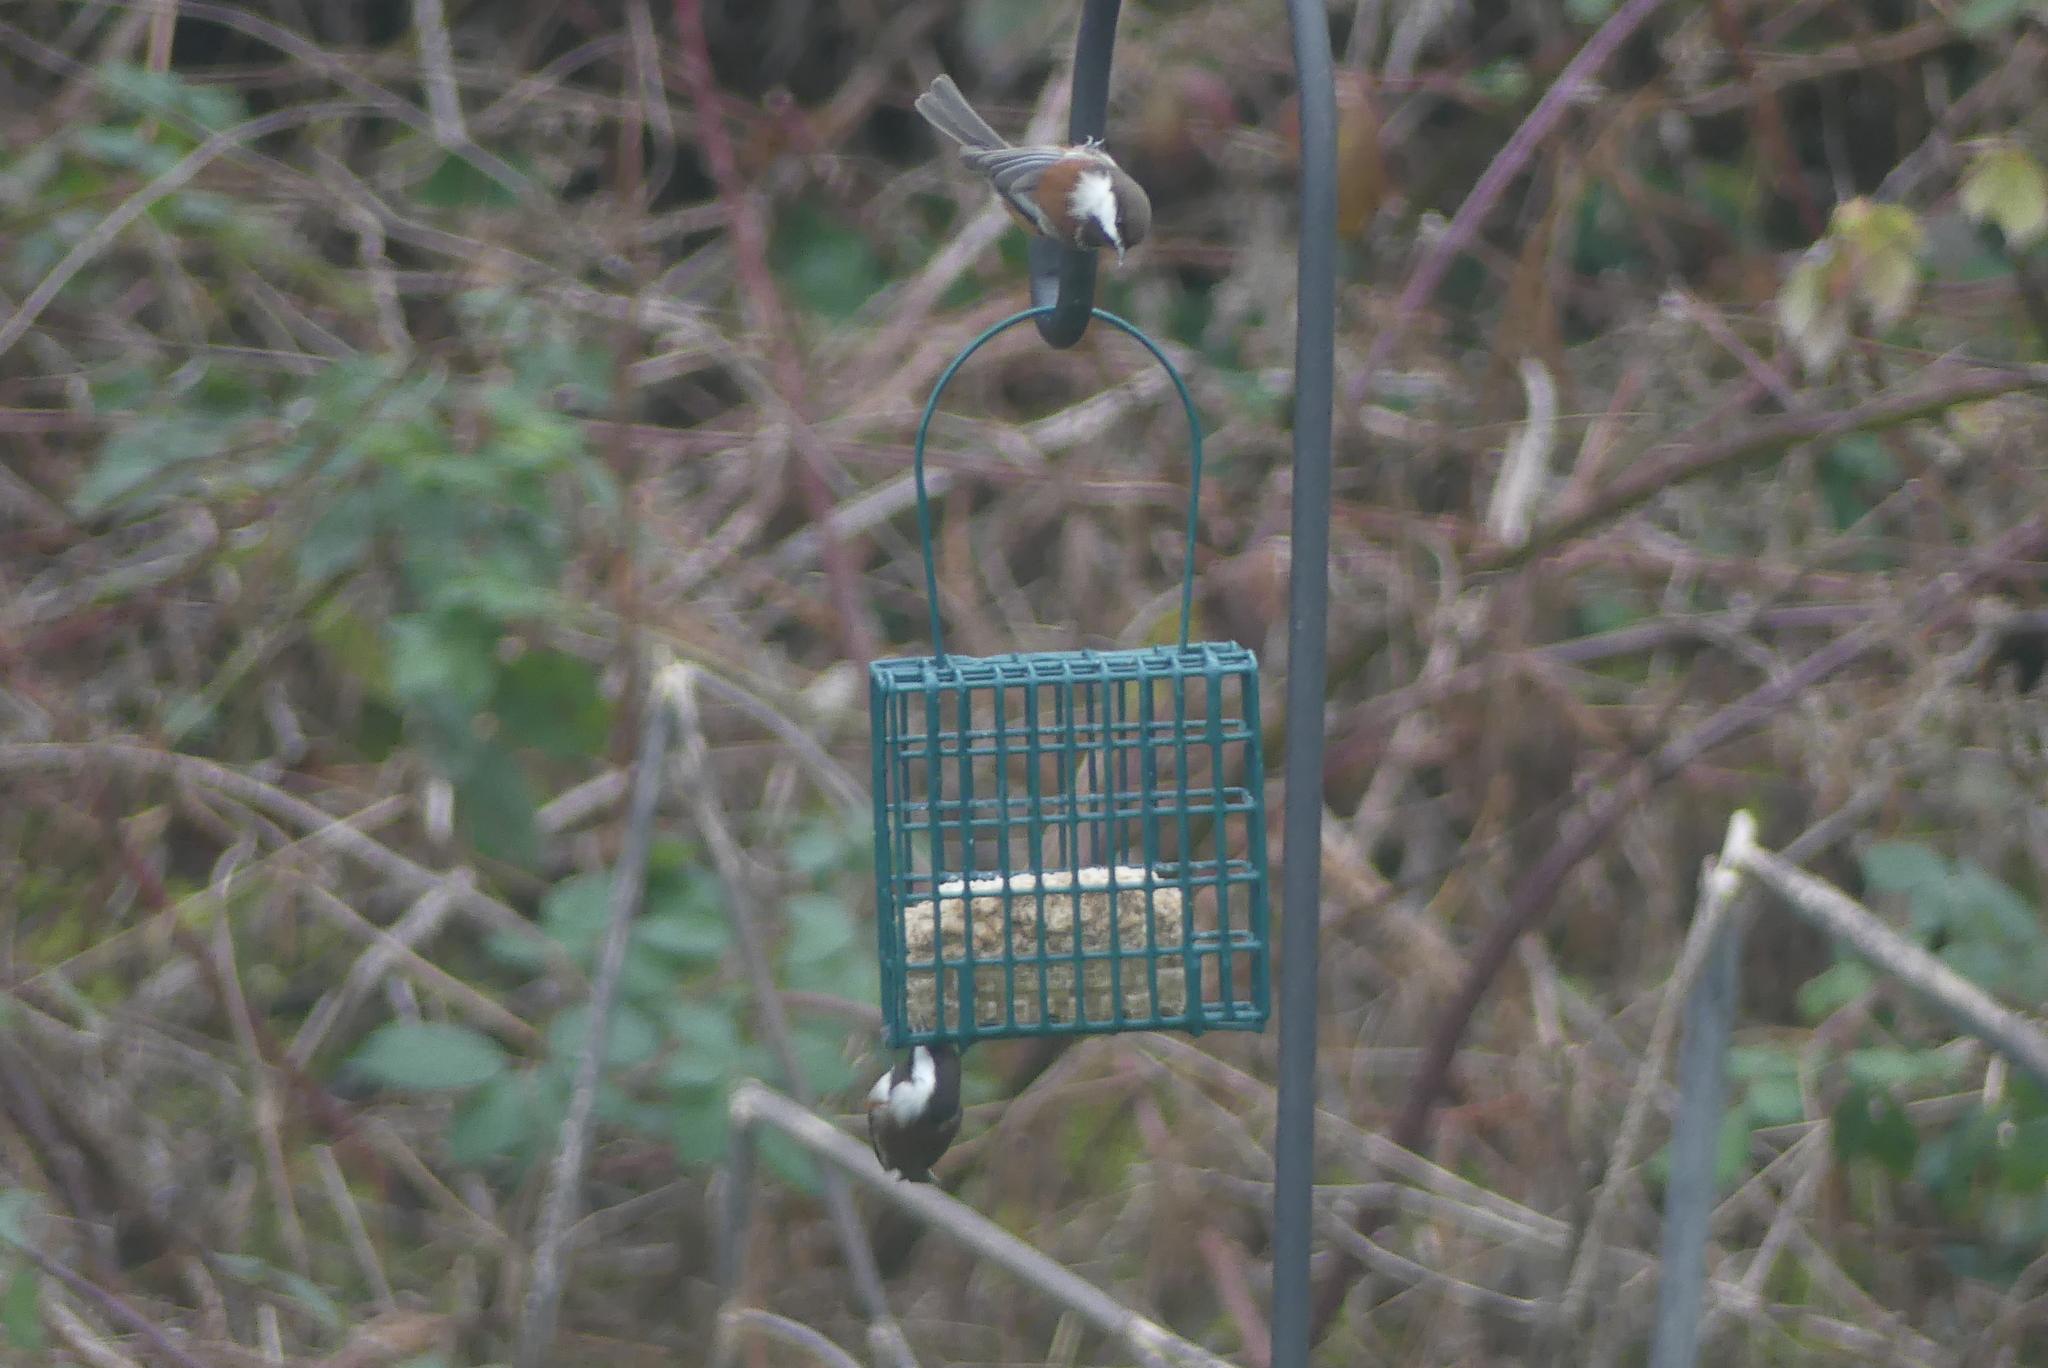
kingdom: Animalia
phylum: Chordata
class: Aves
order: Passeriformes
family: Paridae
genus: Poecile
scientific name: Poecile rufescens
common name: Chestnut-backed chickadee
